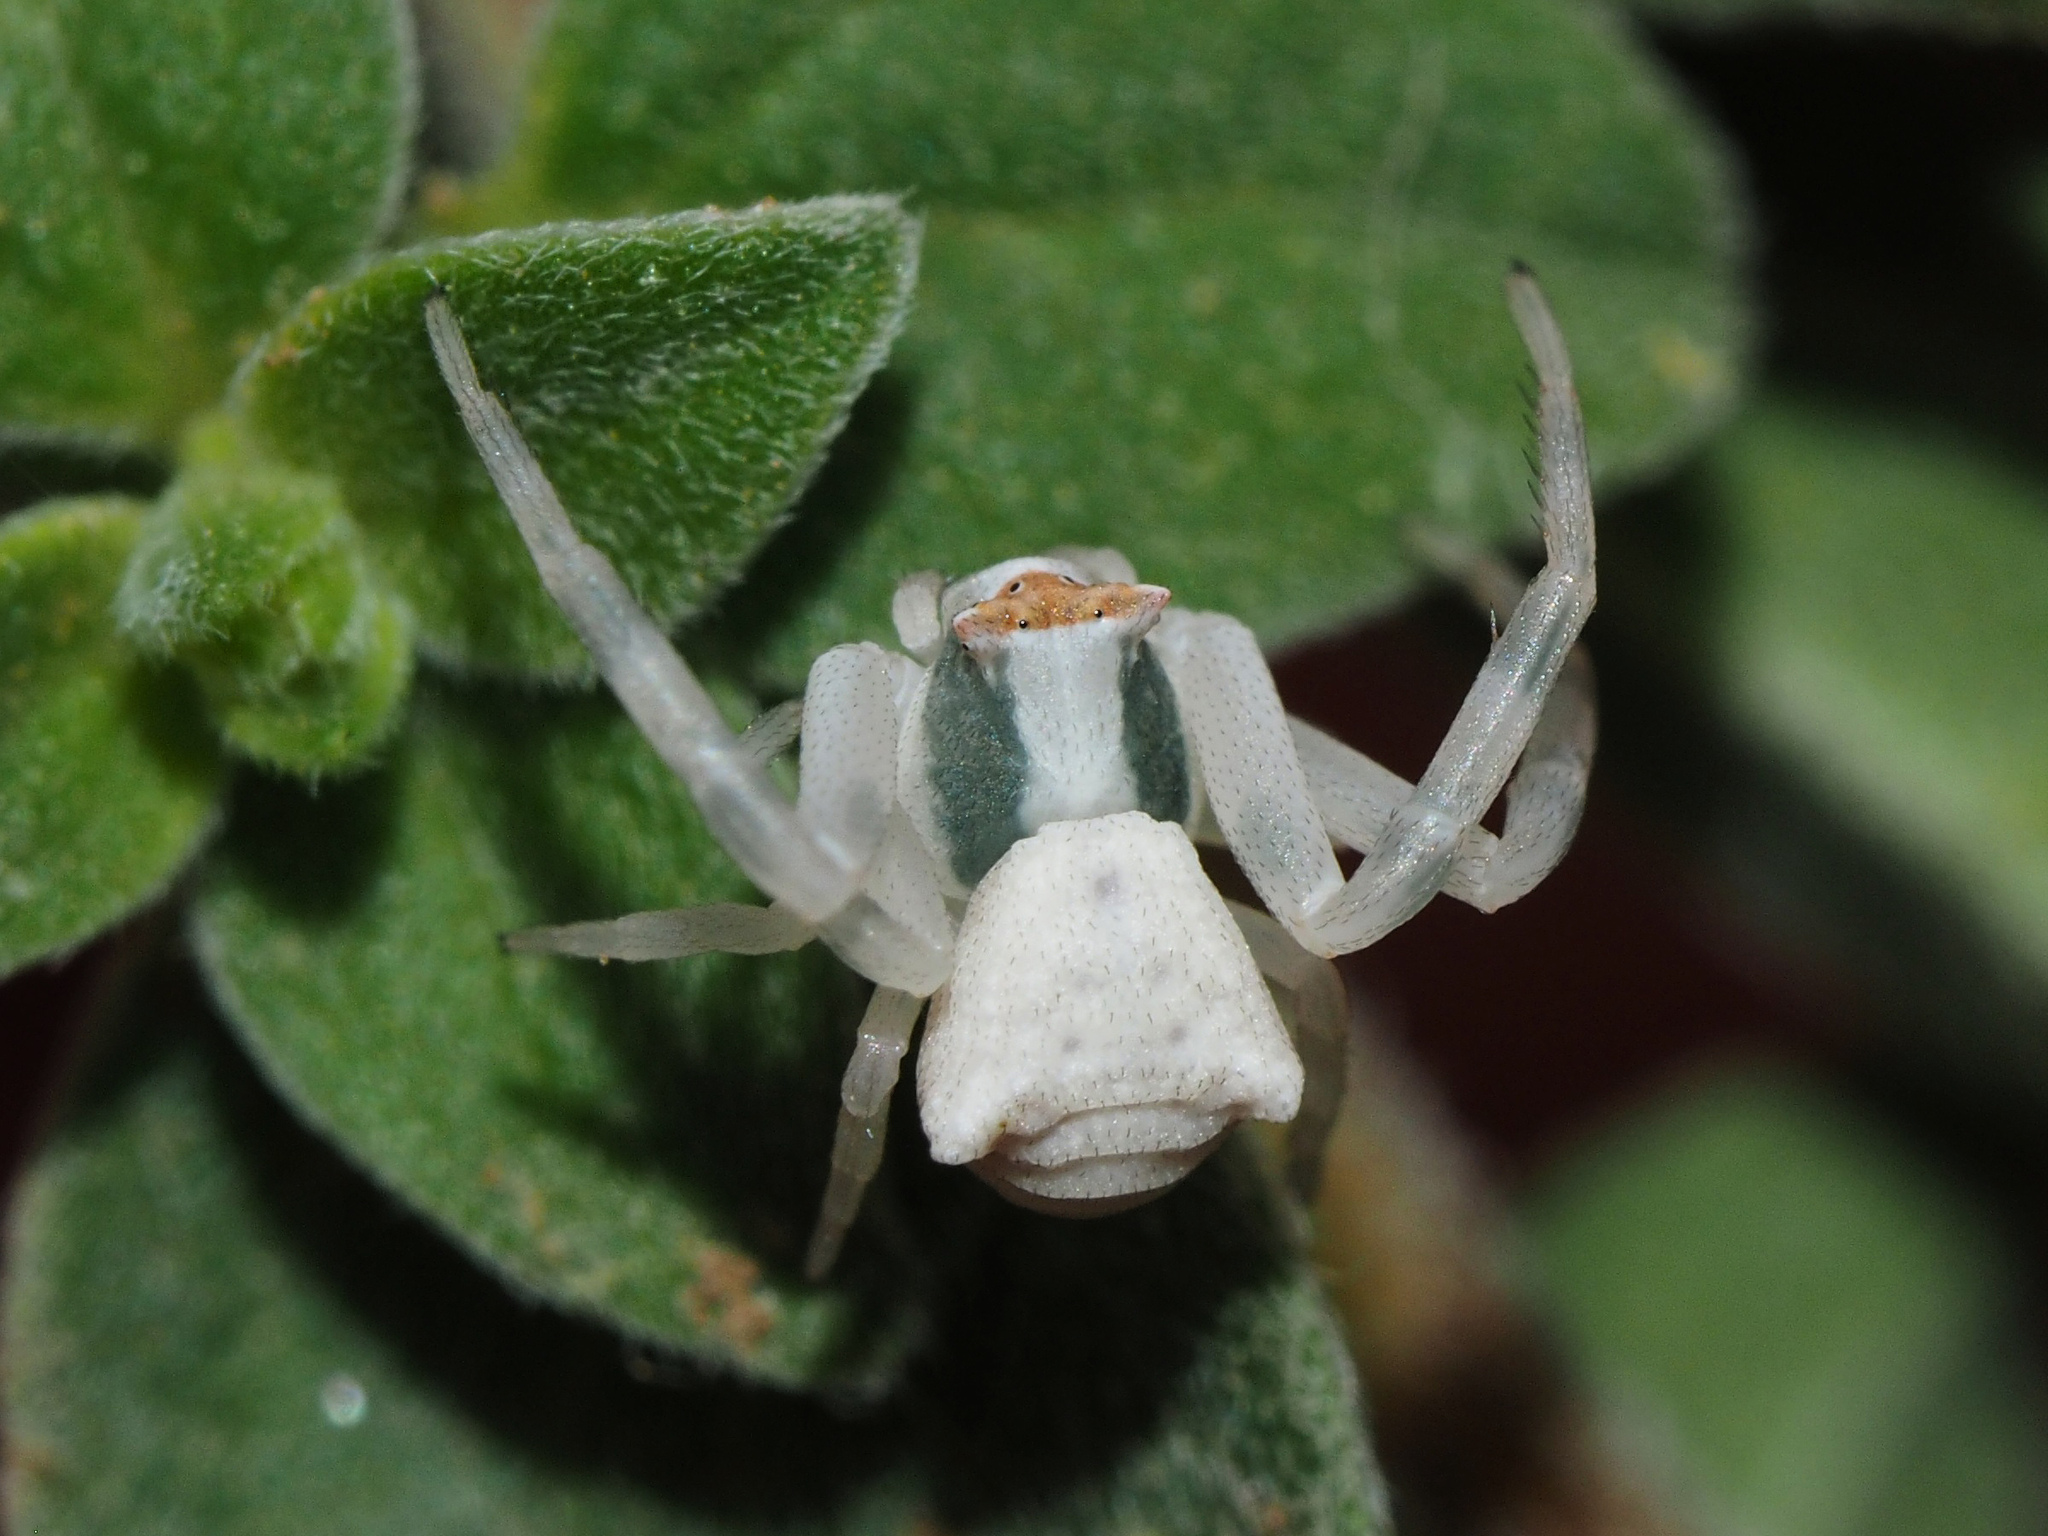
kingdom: Animalia
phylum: Arthropoda
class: Arachnida
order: Araneae
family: Thomisidae
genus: Thomisus
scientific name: Thomisus onustus
